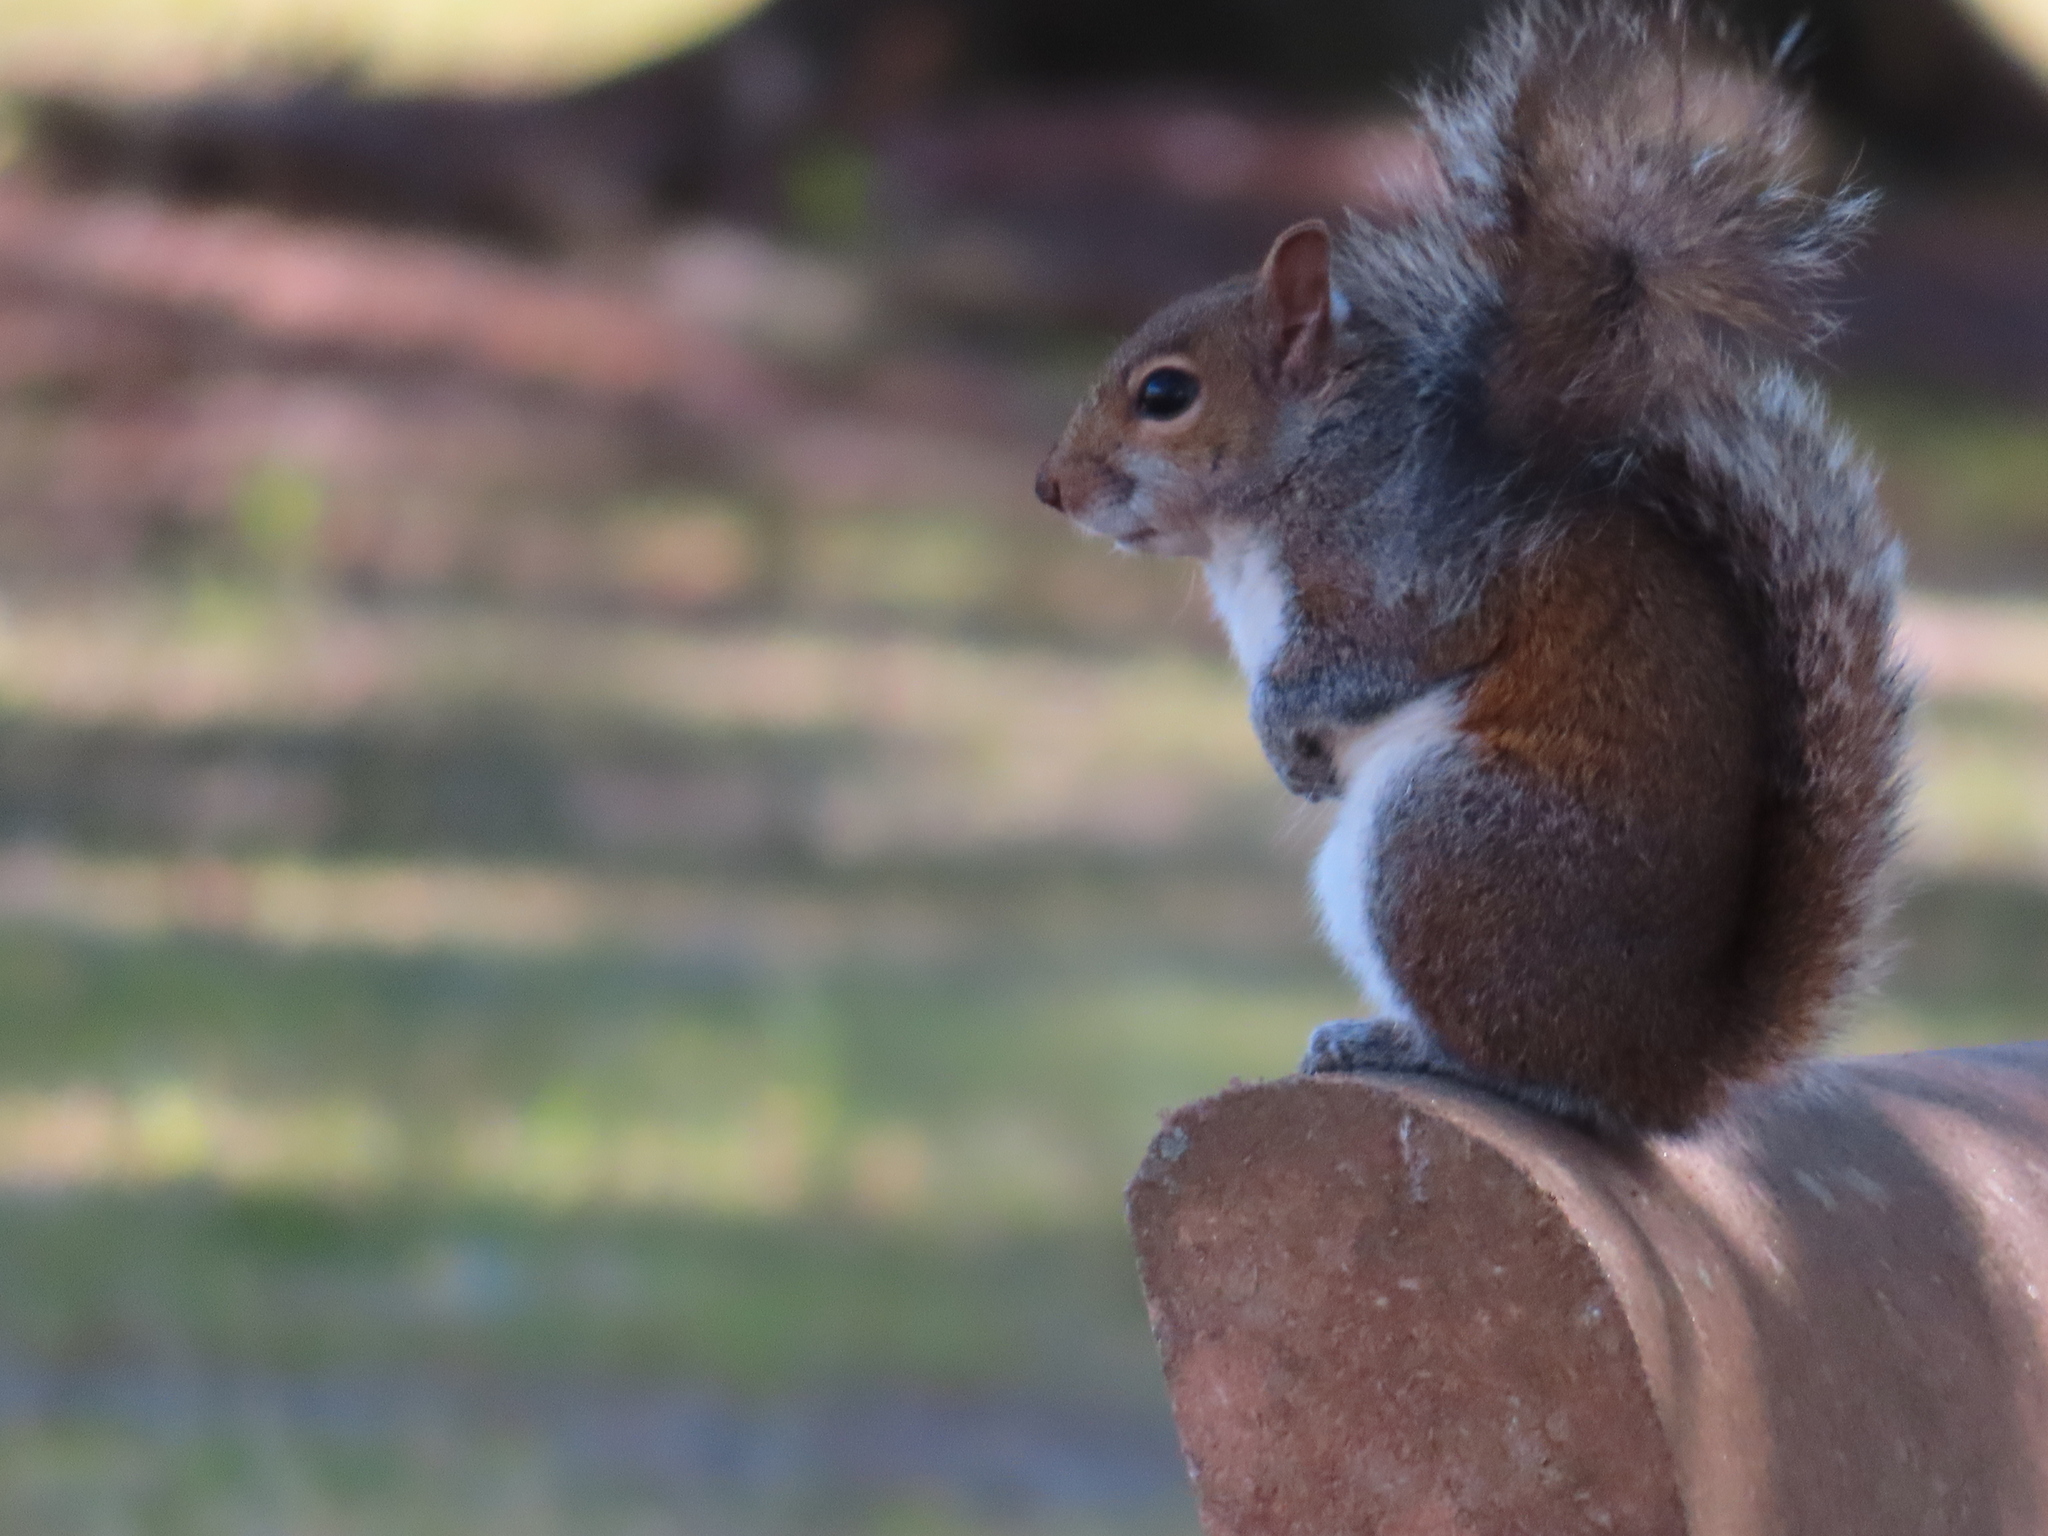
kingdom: Animalia
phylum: Chordata
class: Mammalia
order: Rodentia
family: Sciuridae
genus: Sciurus
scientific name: Sciurus carolinensis
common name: Eastern gray squirrel
